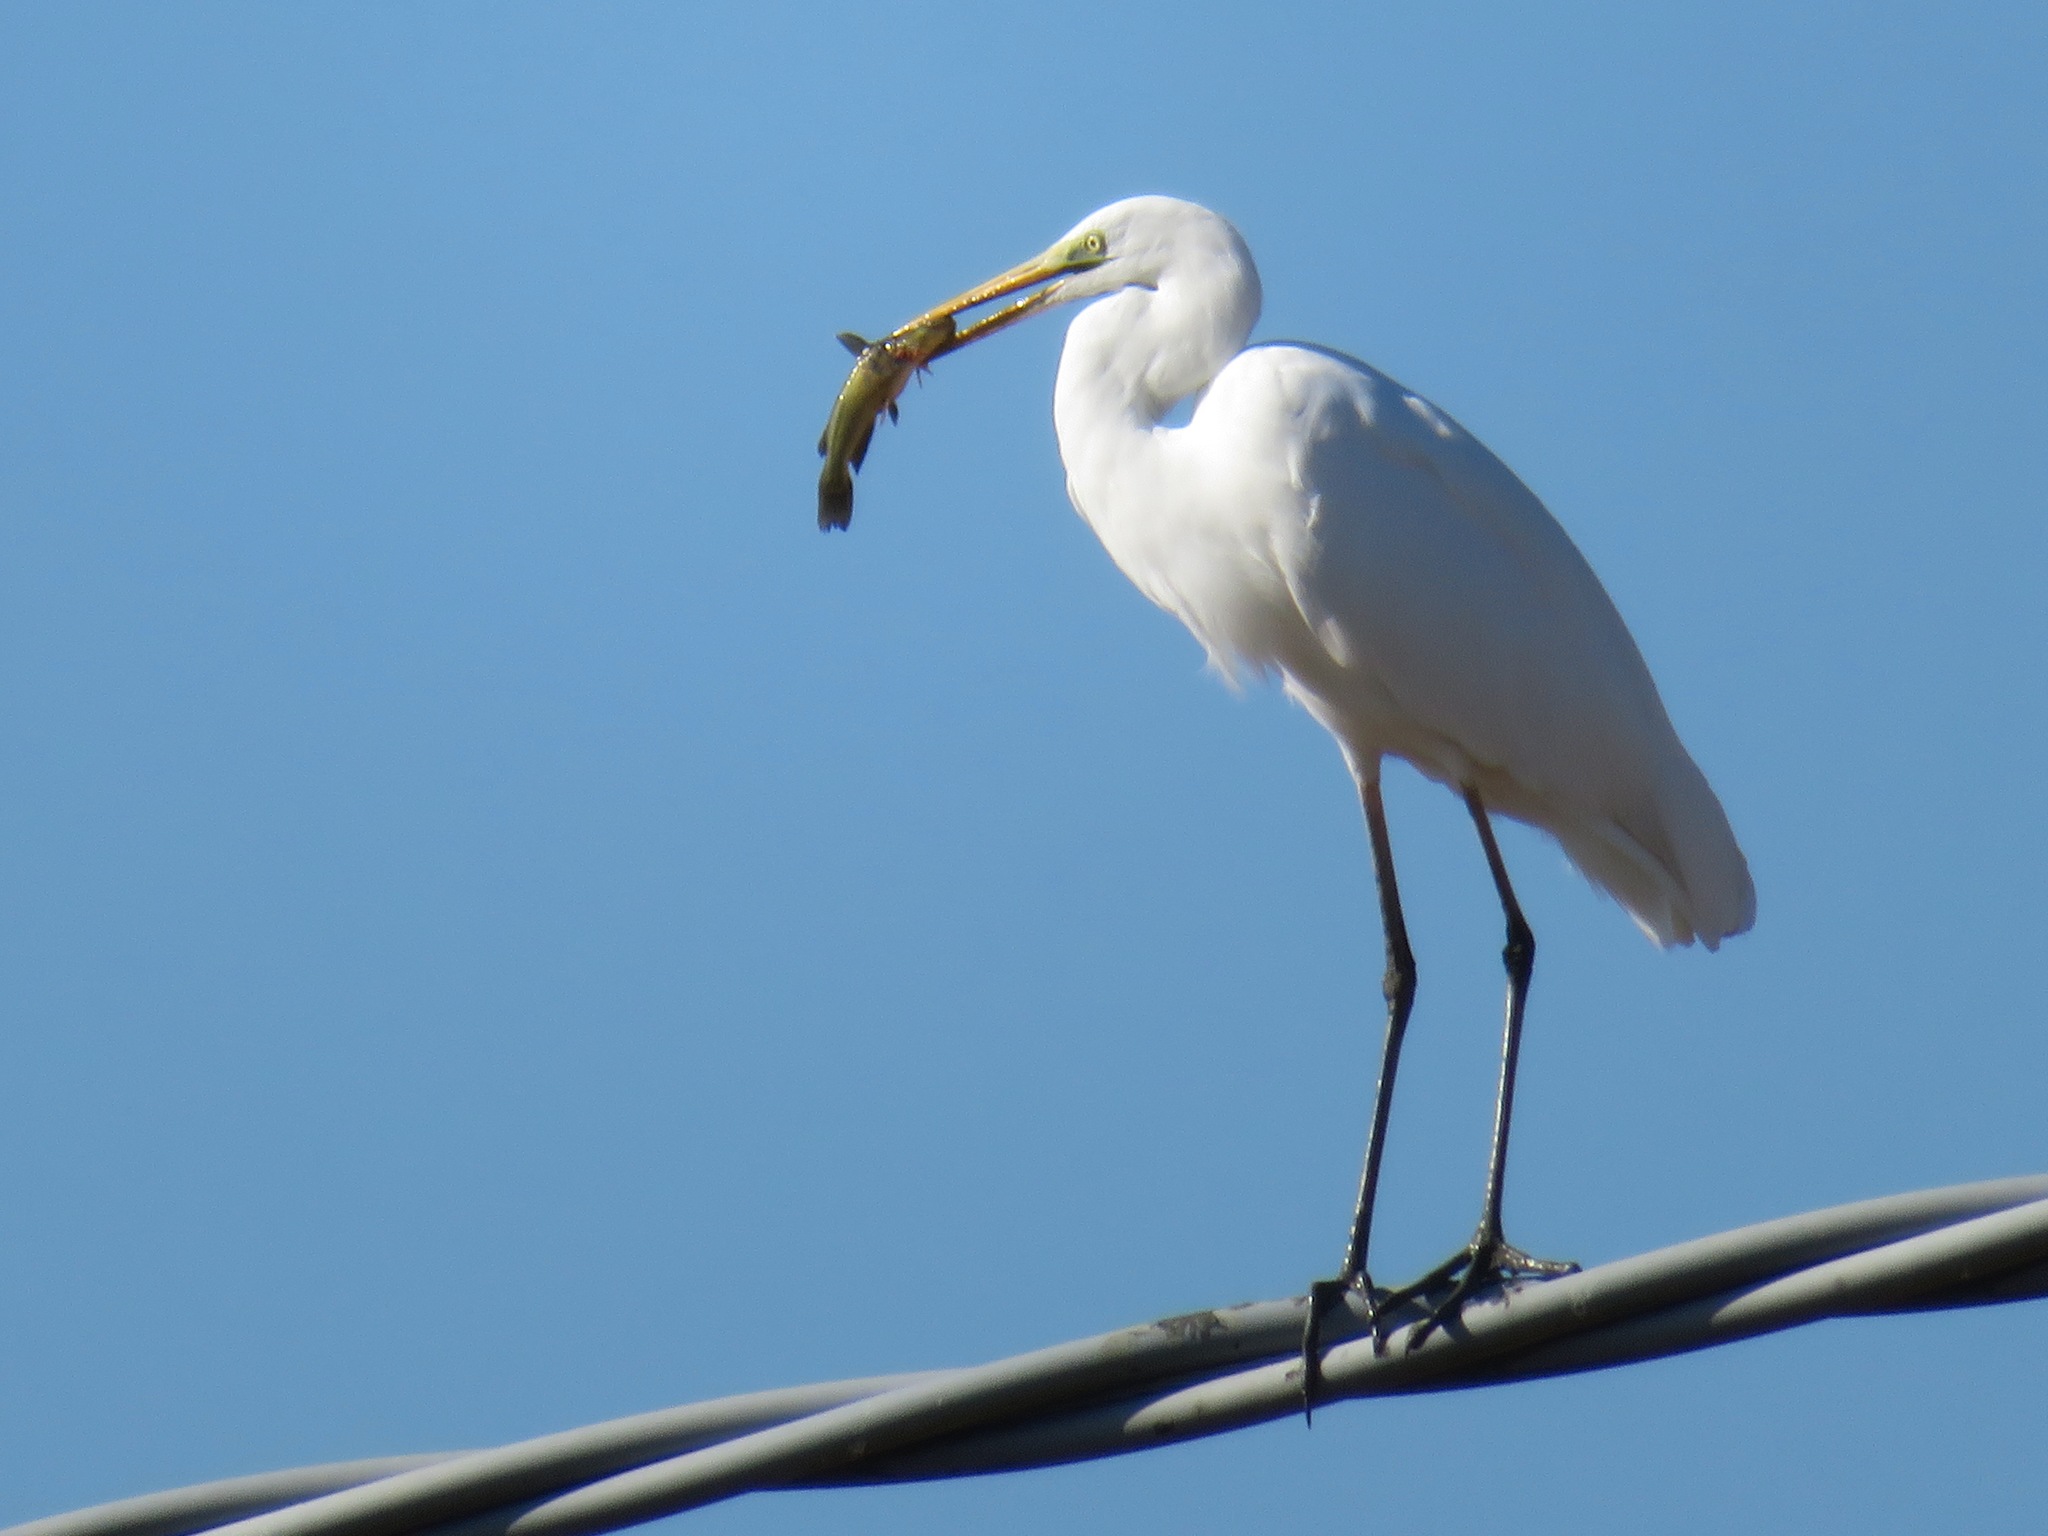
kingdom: Animalia
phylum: Chordata
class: Aves
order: Pelecaniformes
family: Ardeidae
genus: Ardea
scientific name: Ardea alba
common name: Great egret
